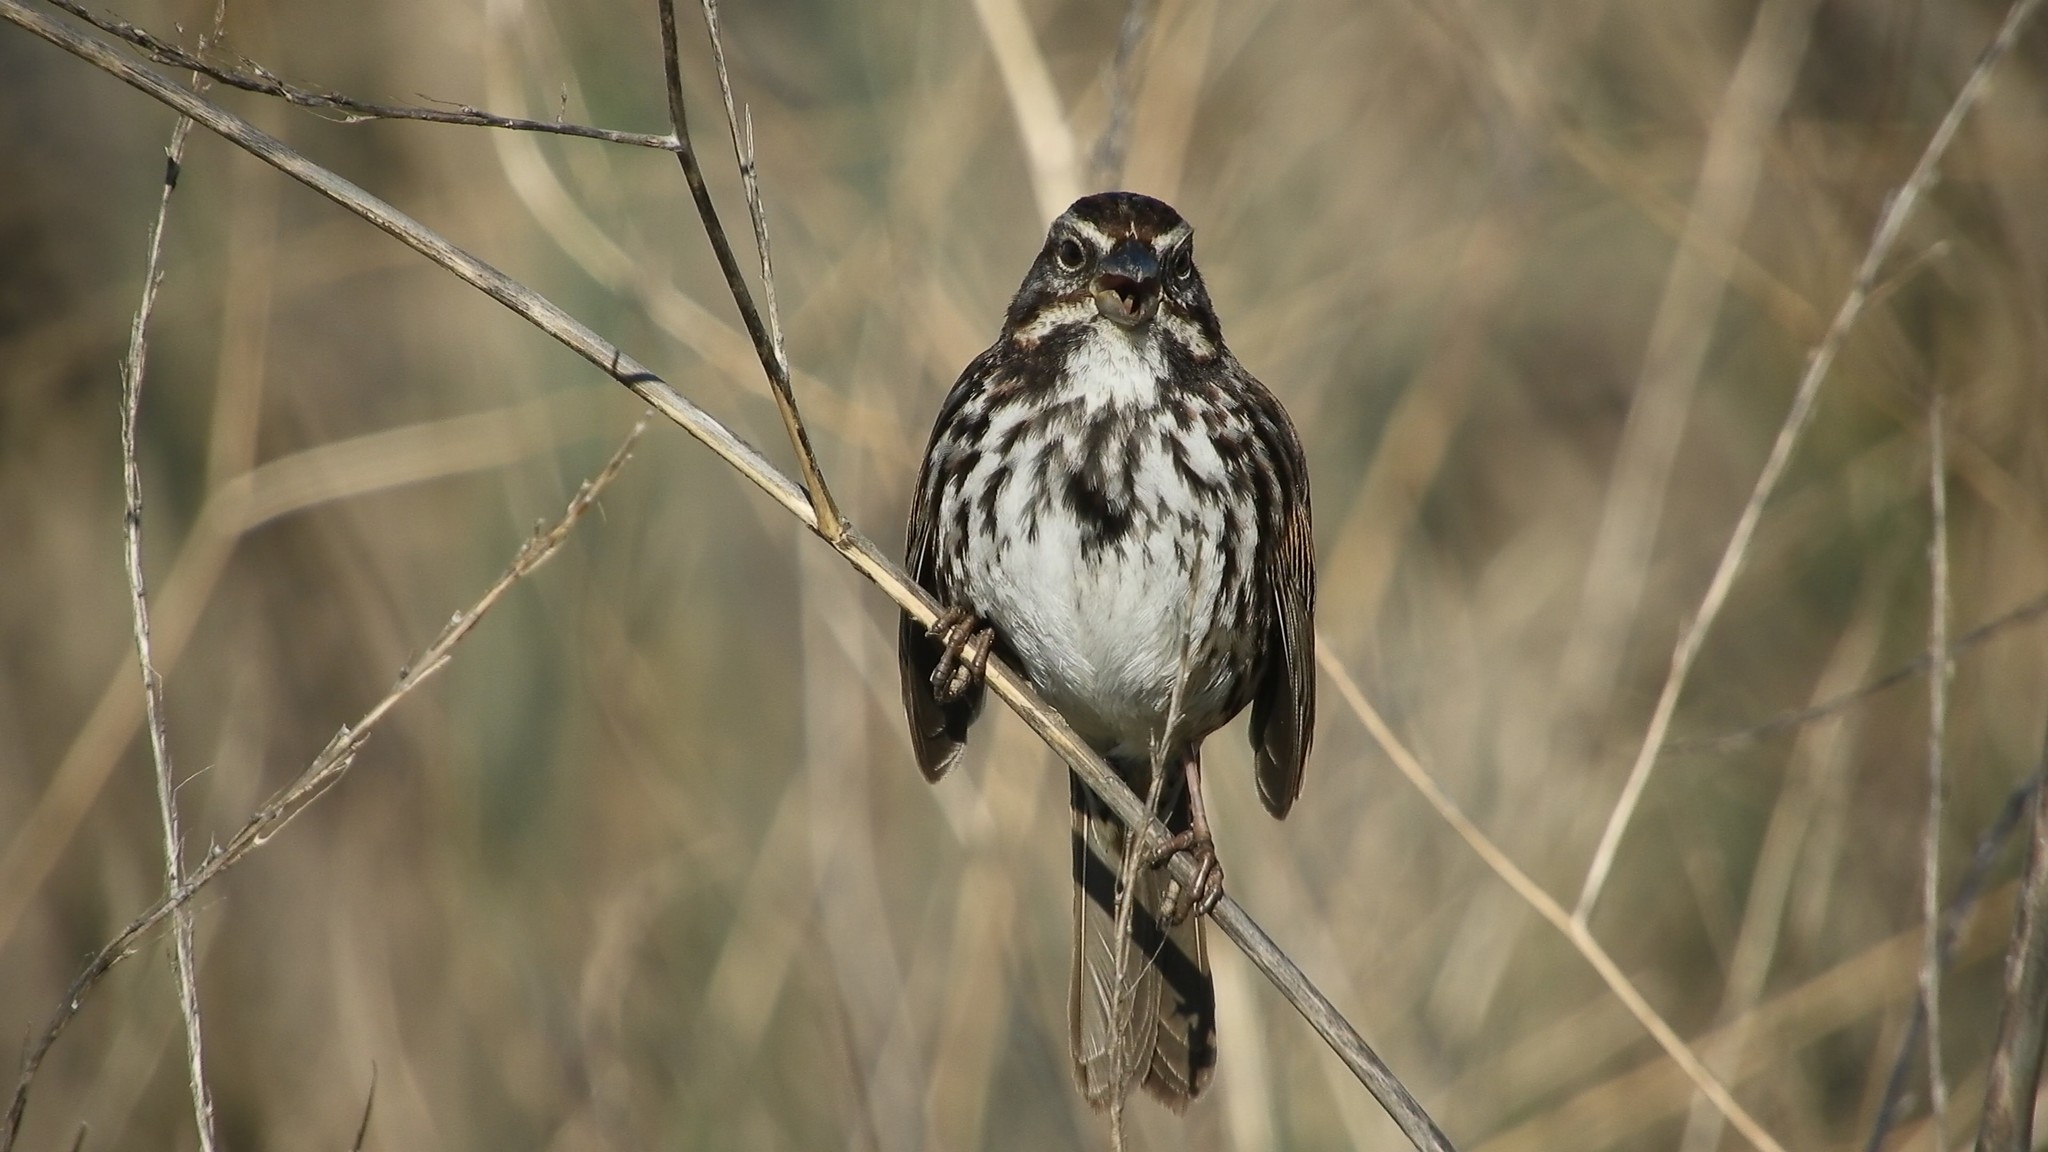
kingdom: Animalia
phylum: Chordata
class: Aves
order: Passeriformes
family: Passerellidae
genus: Melospiza
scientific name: Melospiza melodia
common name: Song sparrow
